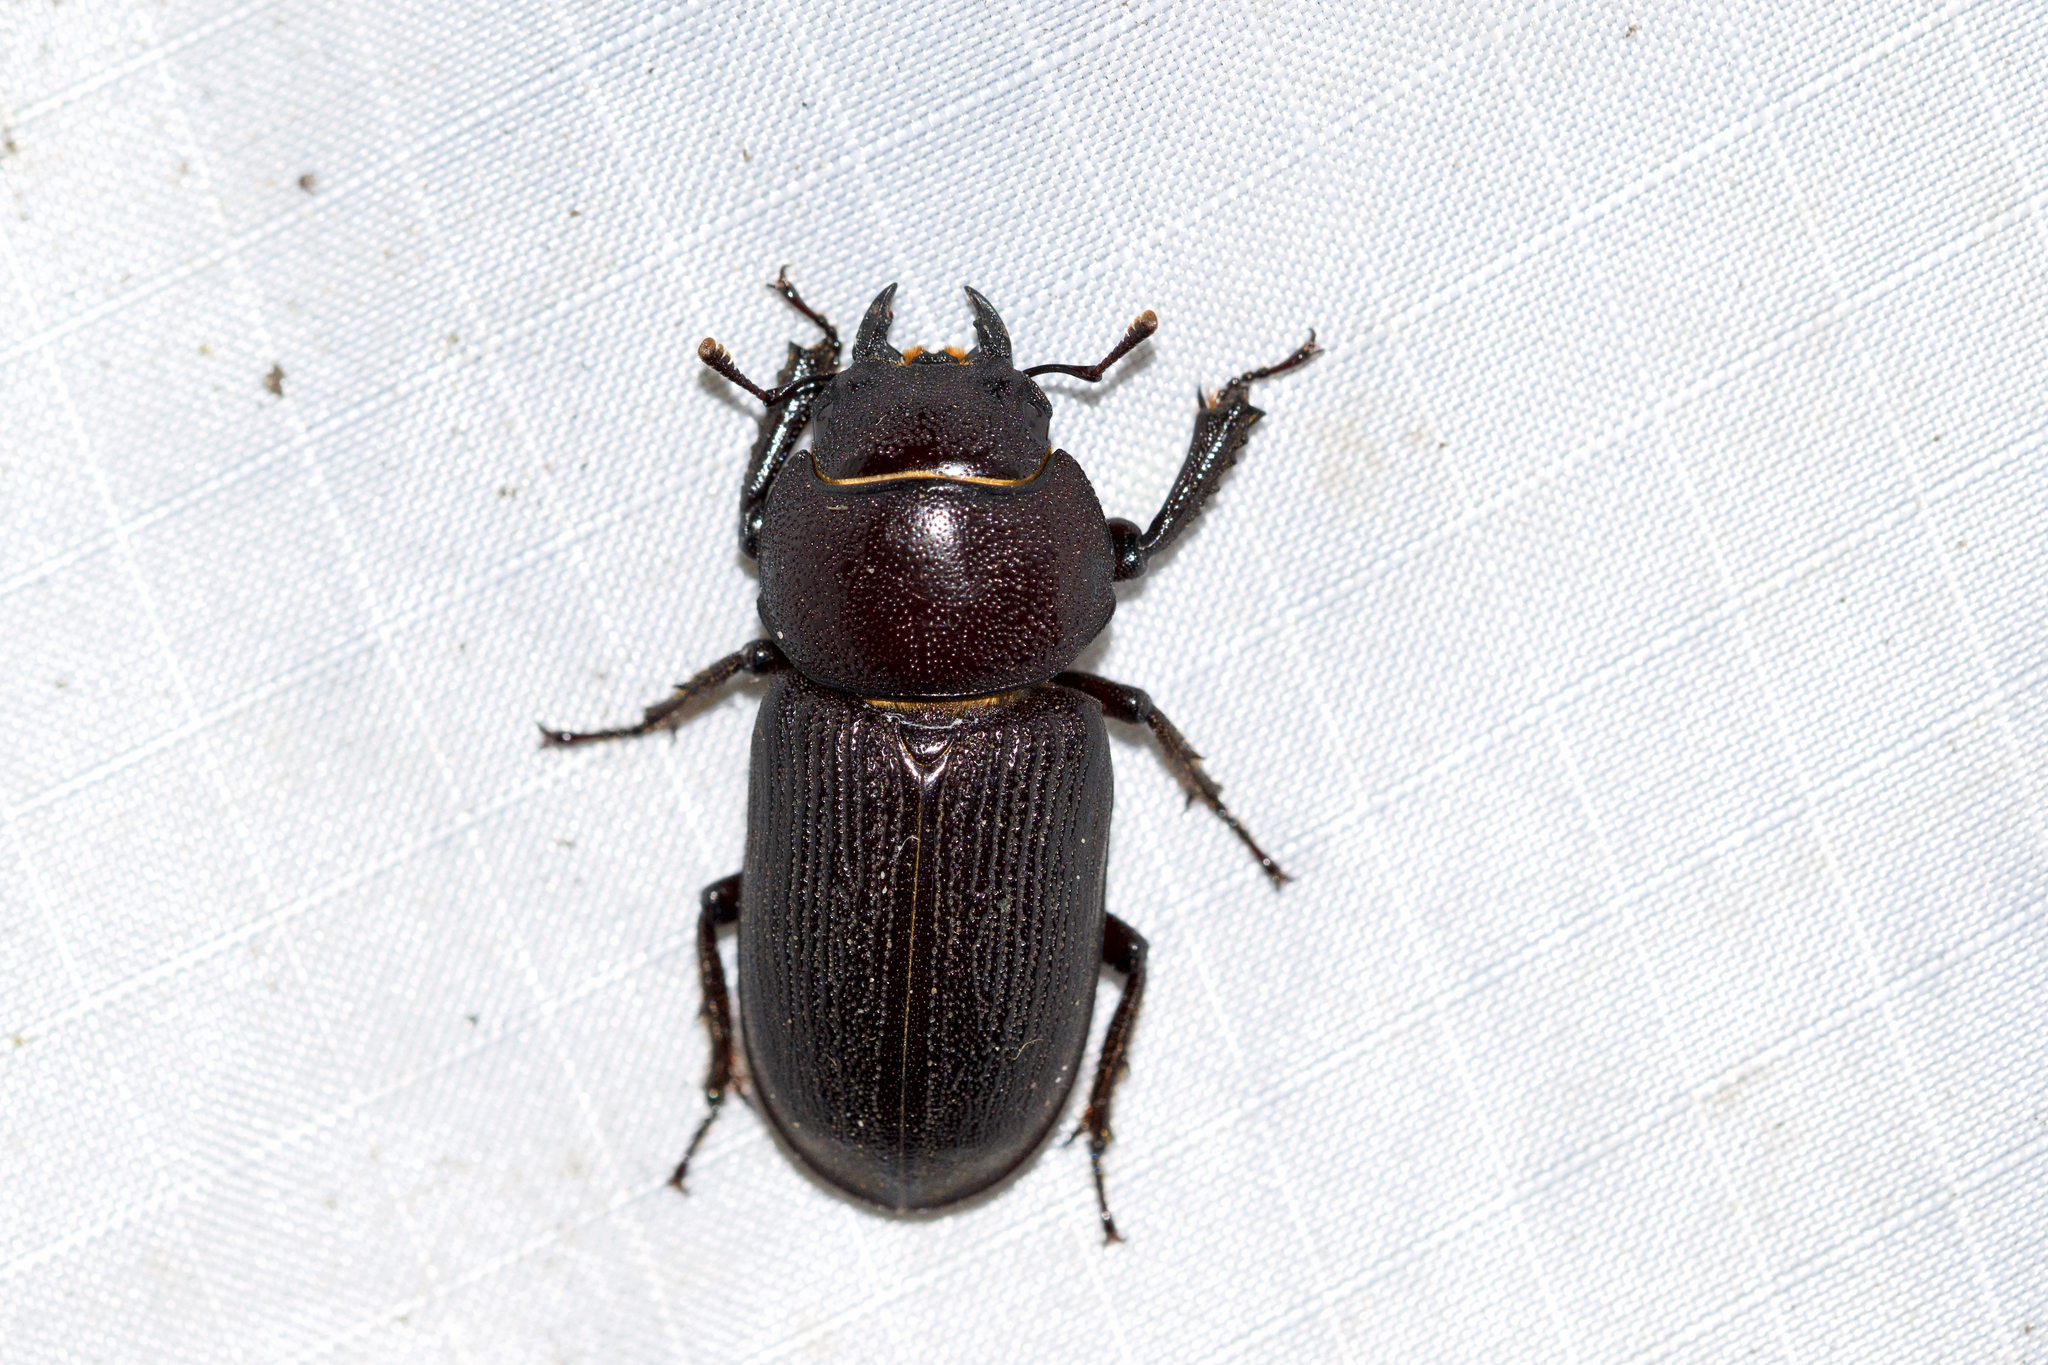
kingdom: Animalia
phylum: Arthropoda
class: Insecta
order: Coleoptera
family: Lucanidae
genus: Dorcus
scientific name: Dorcus parallelus
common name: Antelope beetle
